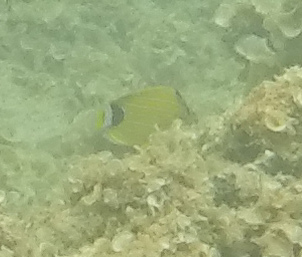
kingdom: Animalia
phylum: Chordata
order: Perciformes
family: Chaetodontidae
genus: Chaetodon
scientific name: Chaetodon fremblii
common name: Bluestriped butterflyfish
